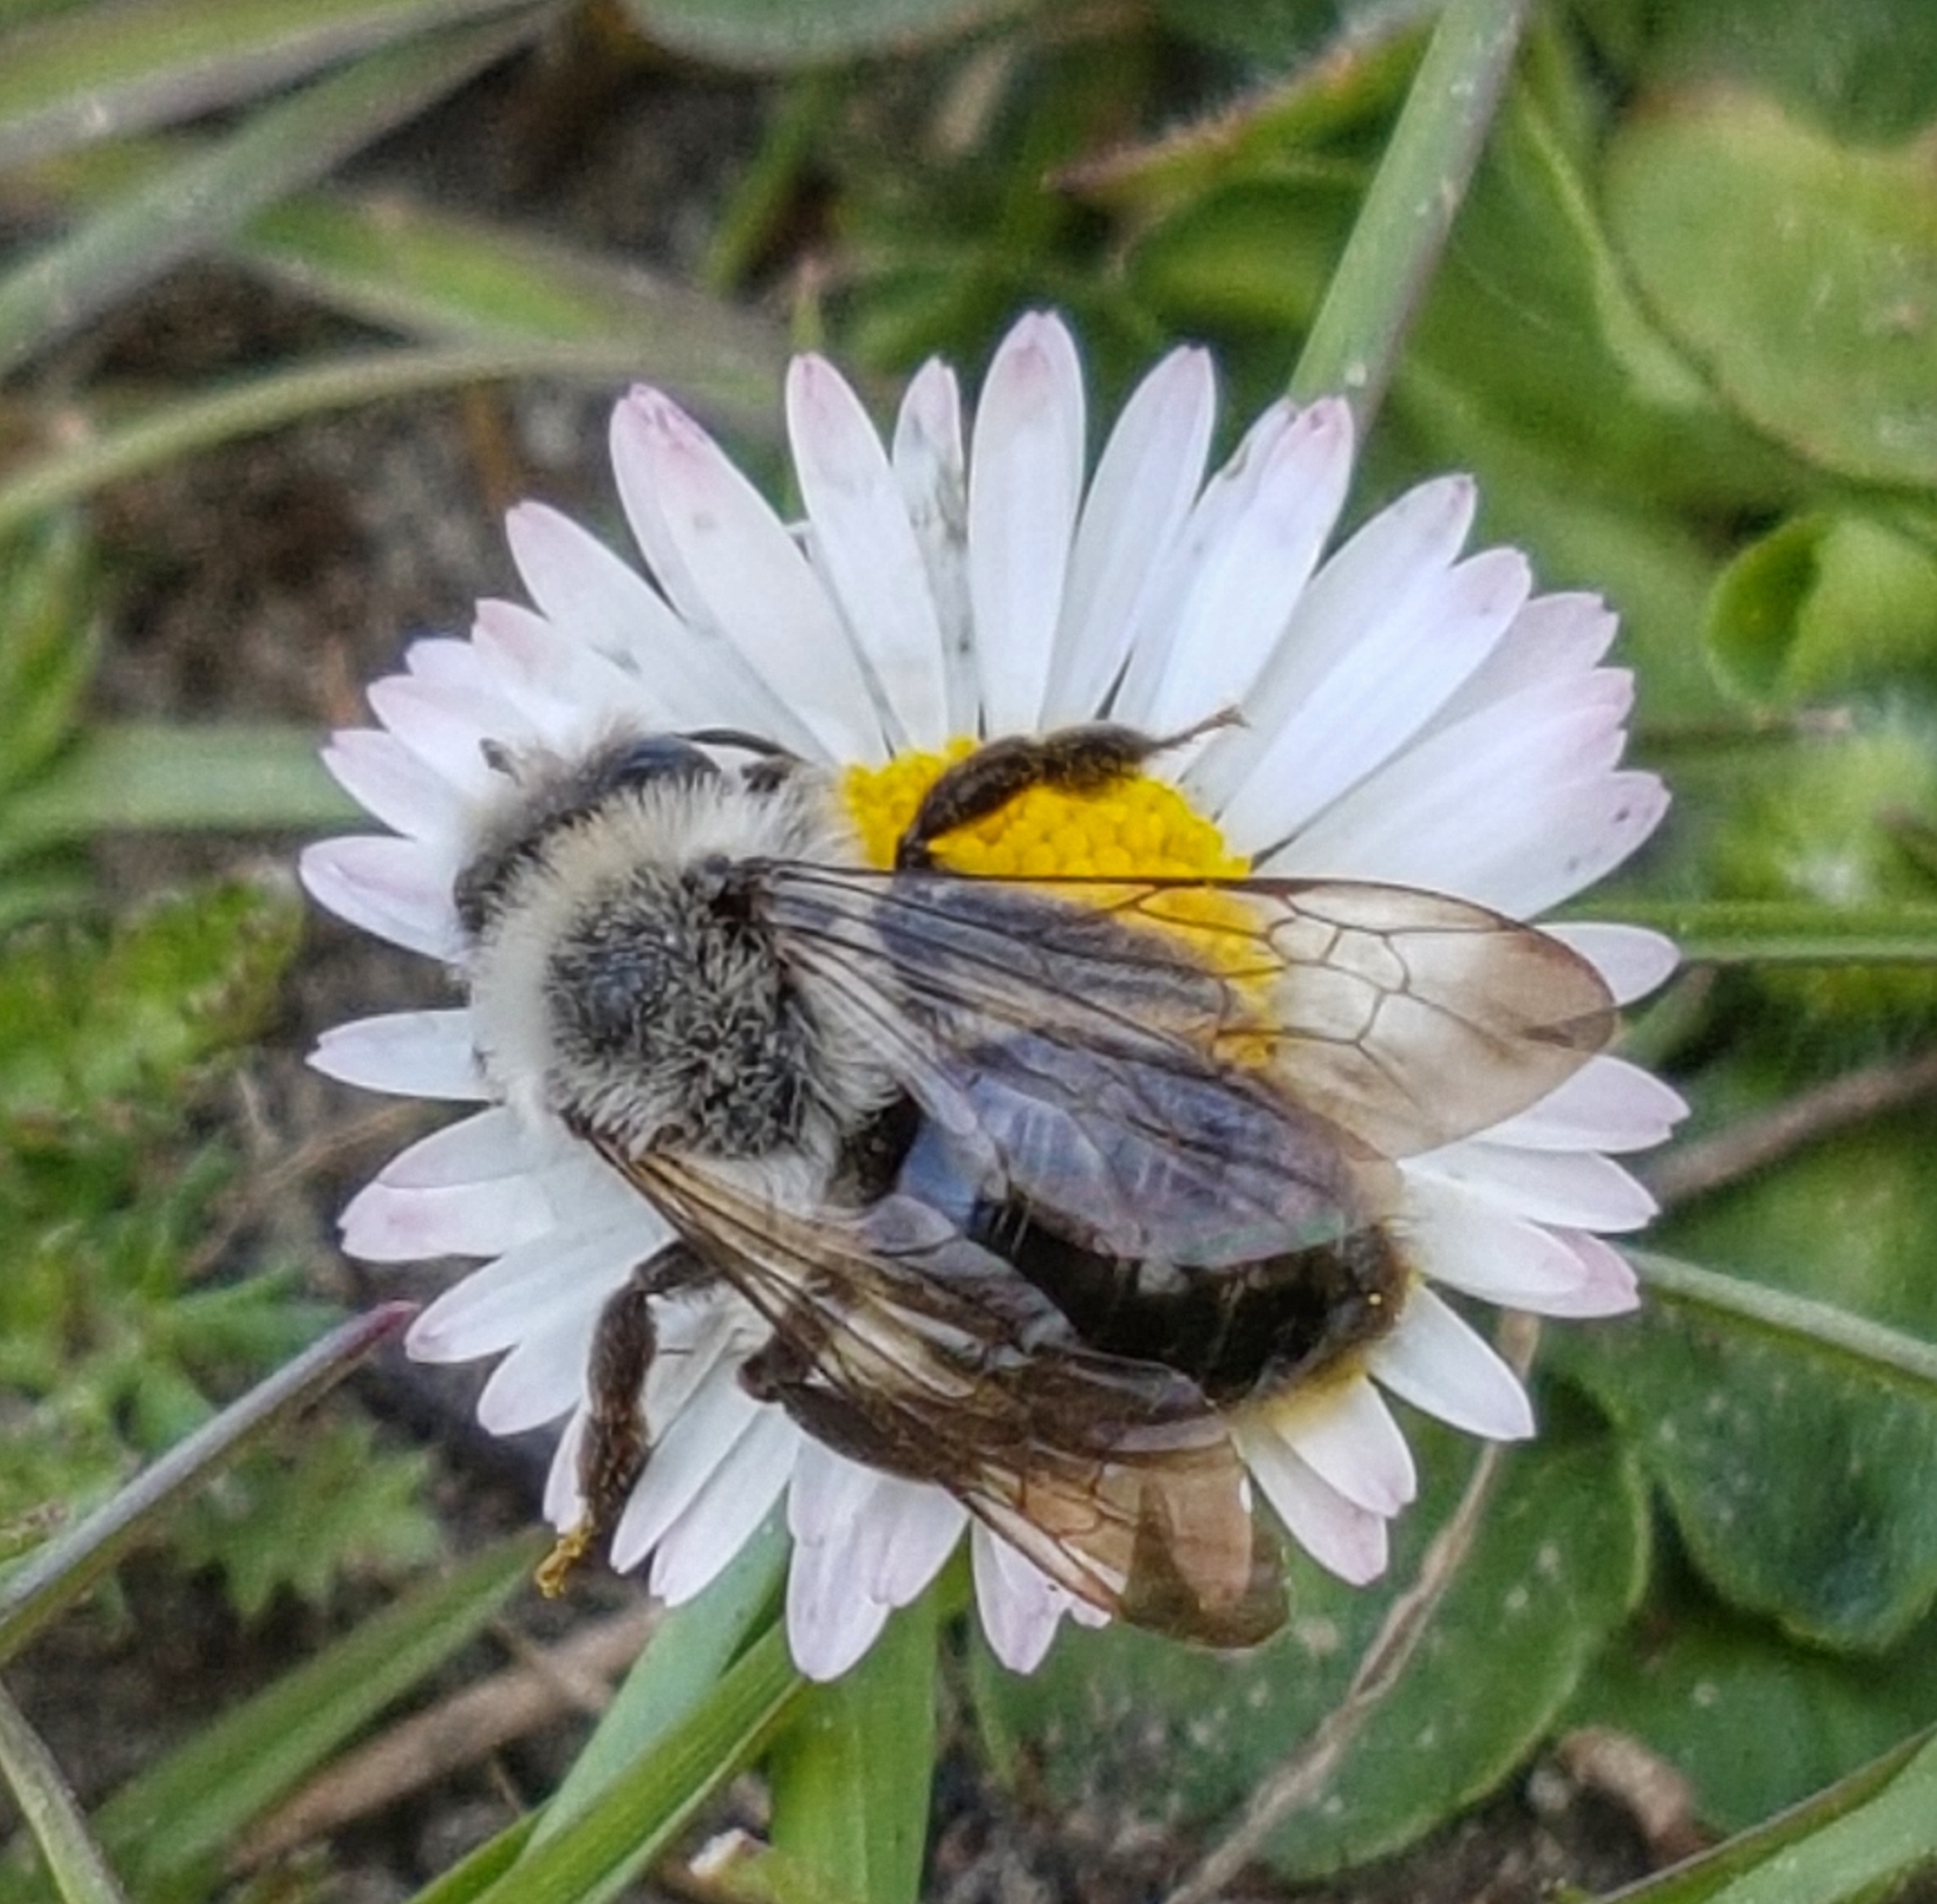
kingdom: Animalia
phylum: Arthropoda
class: Insecta
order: Hymenoptera
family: Andrenidae
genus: Andrena
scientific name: Andrena vaga
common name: Grey-backed mining bee
